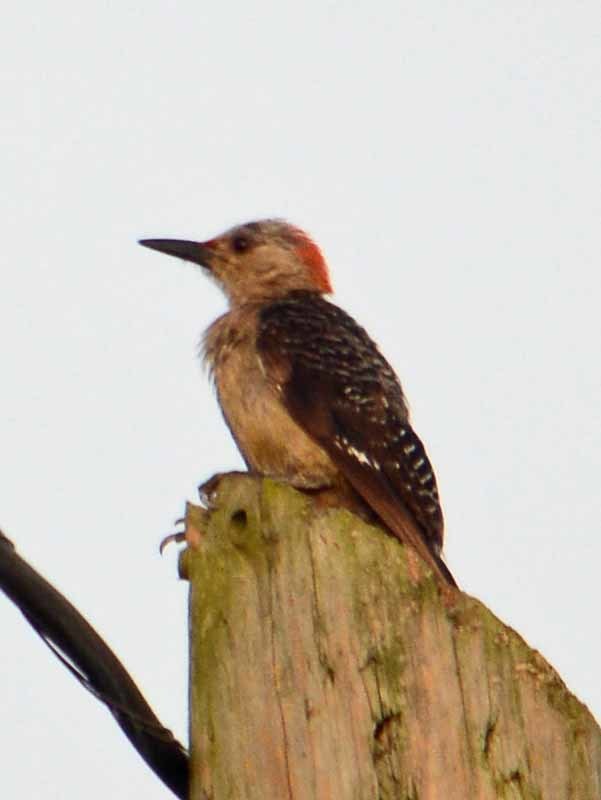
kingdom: Animalia
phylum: Chordata
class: Aves
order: Piciformes
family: Picidae
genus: Melanerpes
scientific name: Melanerpes aurifrons
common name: Golden-fronted woodpecker
